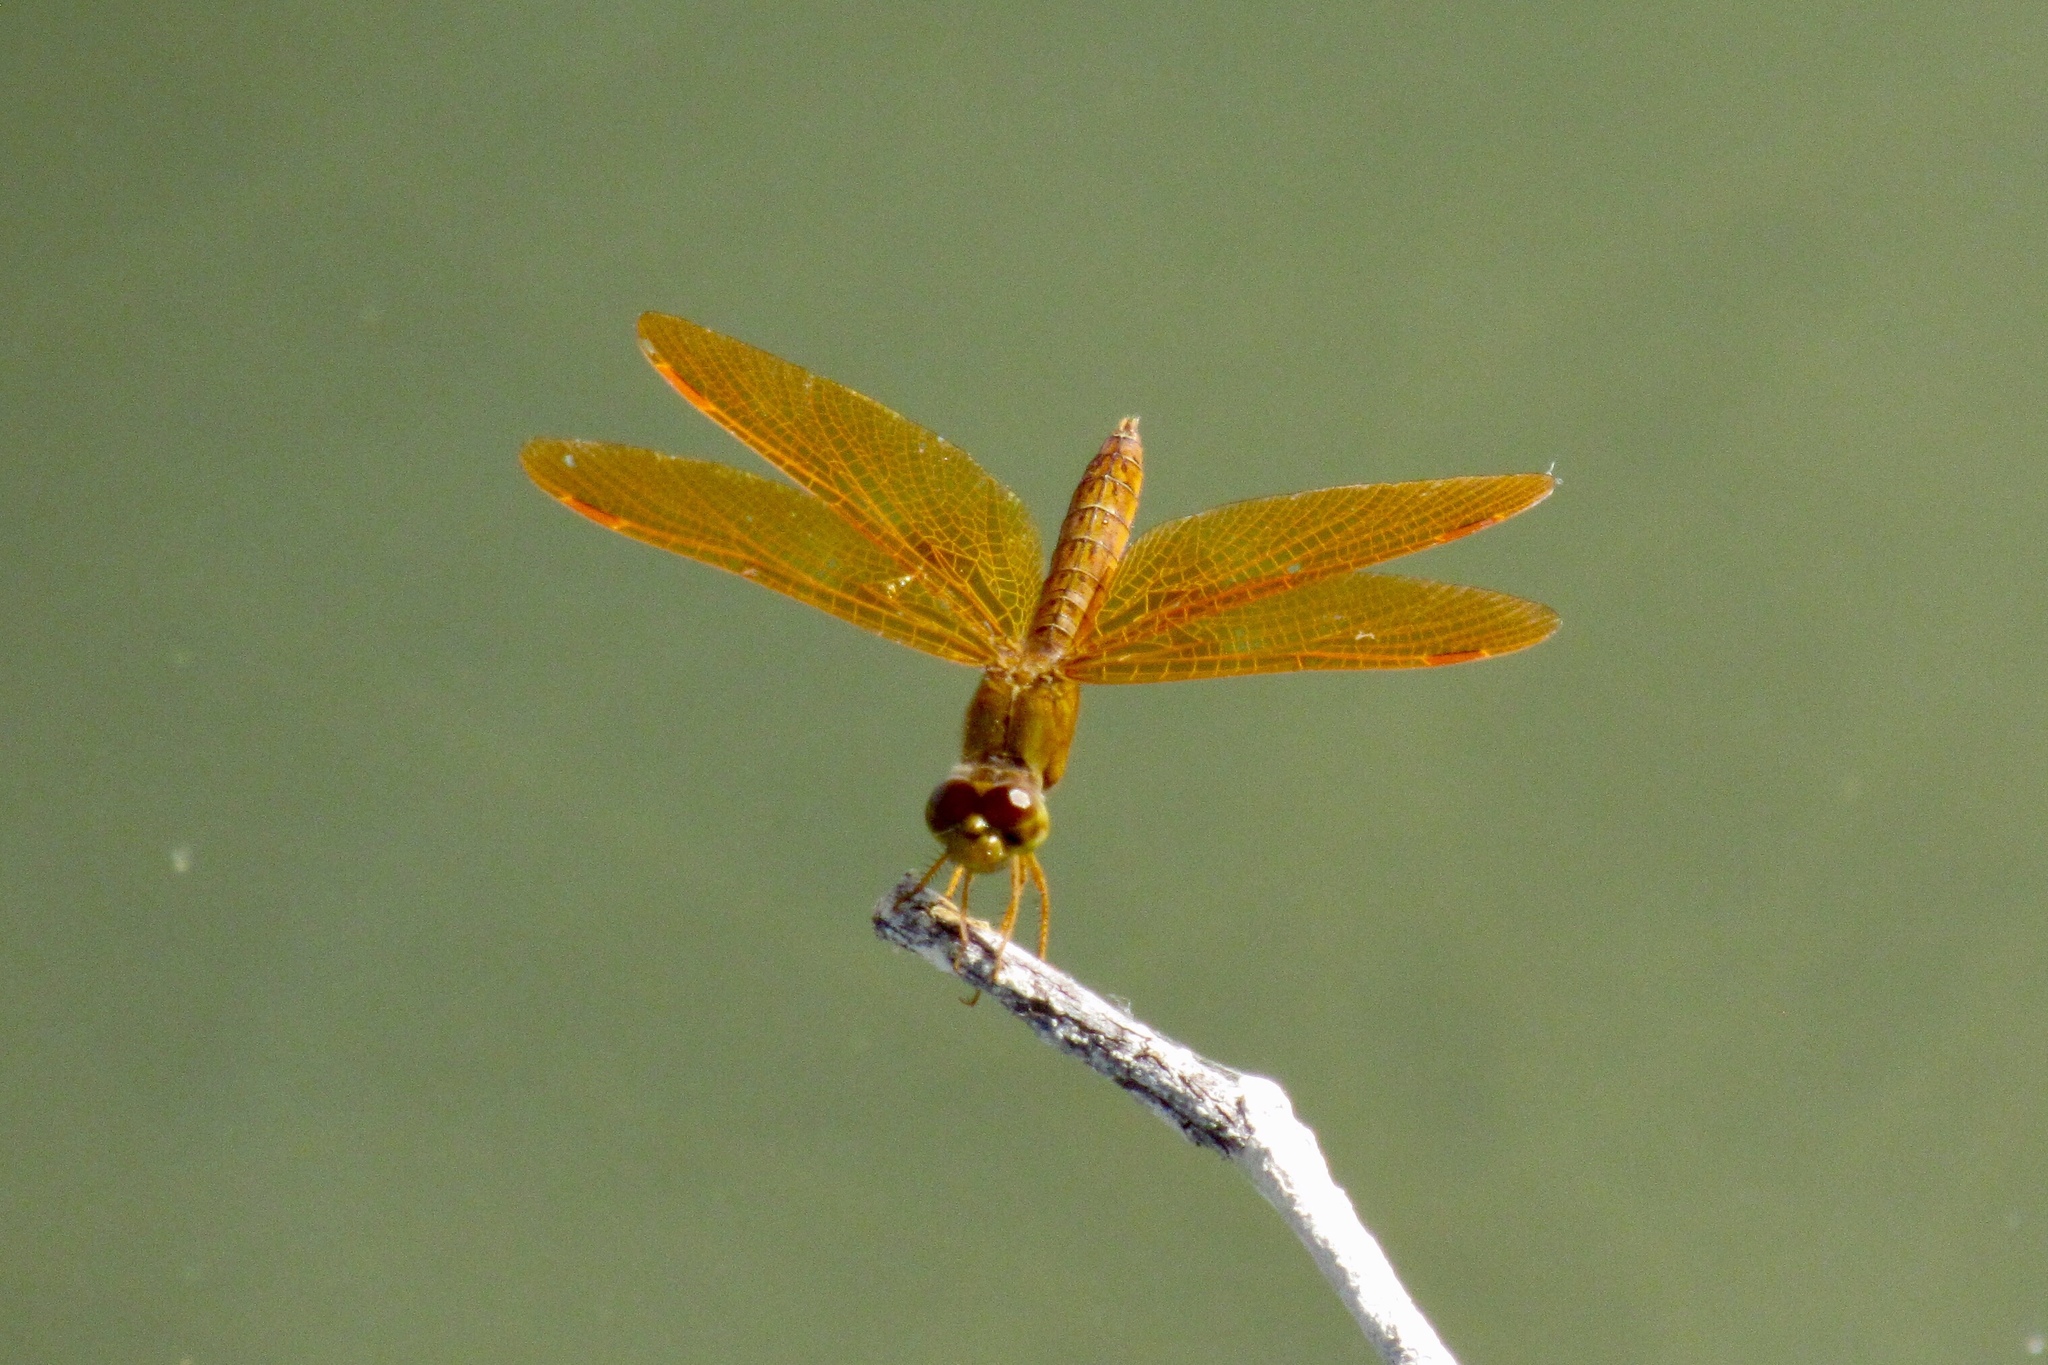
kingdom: Animalia
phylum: Arthropoda
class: Insecta
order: Odonata
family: Libellulidae
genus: Perithemis
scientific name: Perithemis intensa
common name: Mexican amberwing
